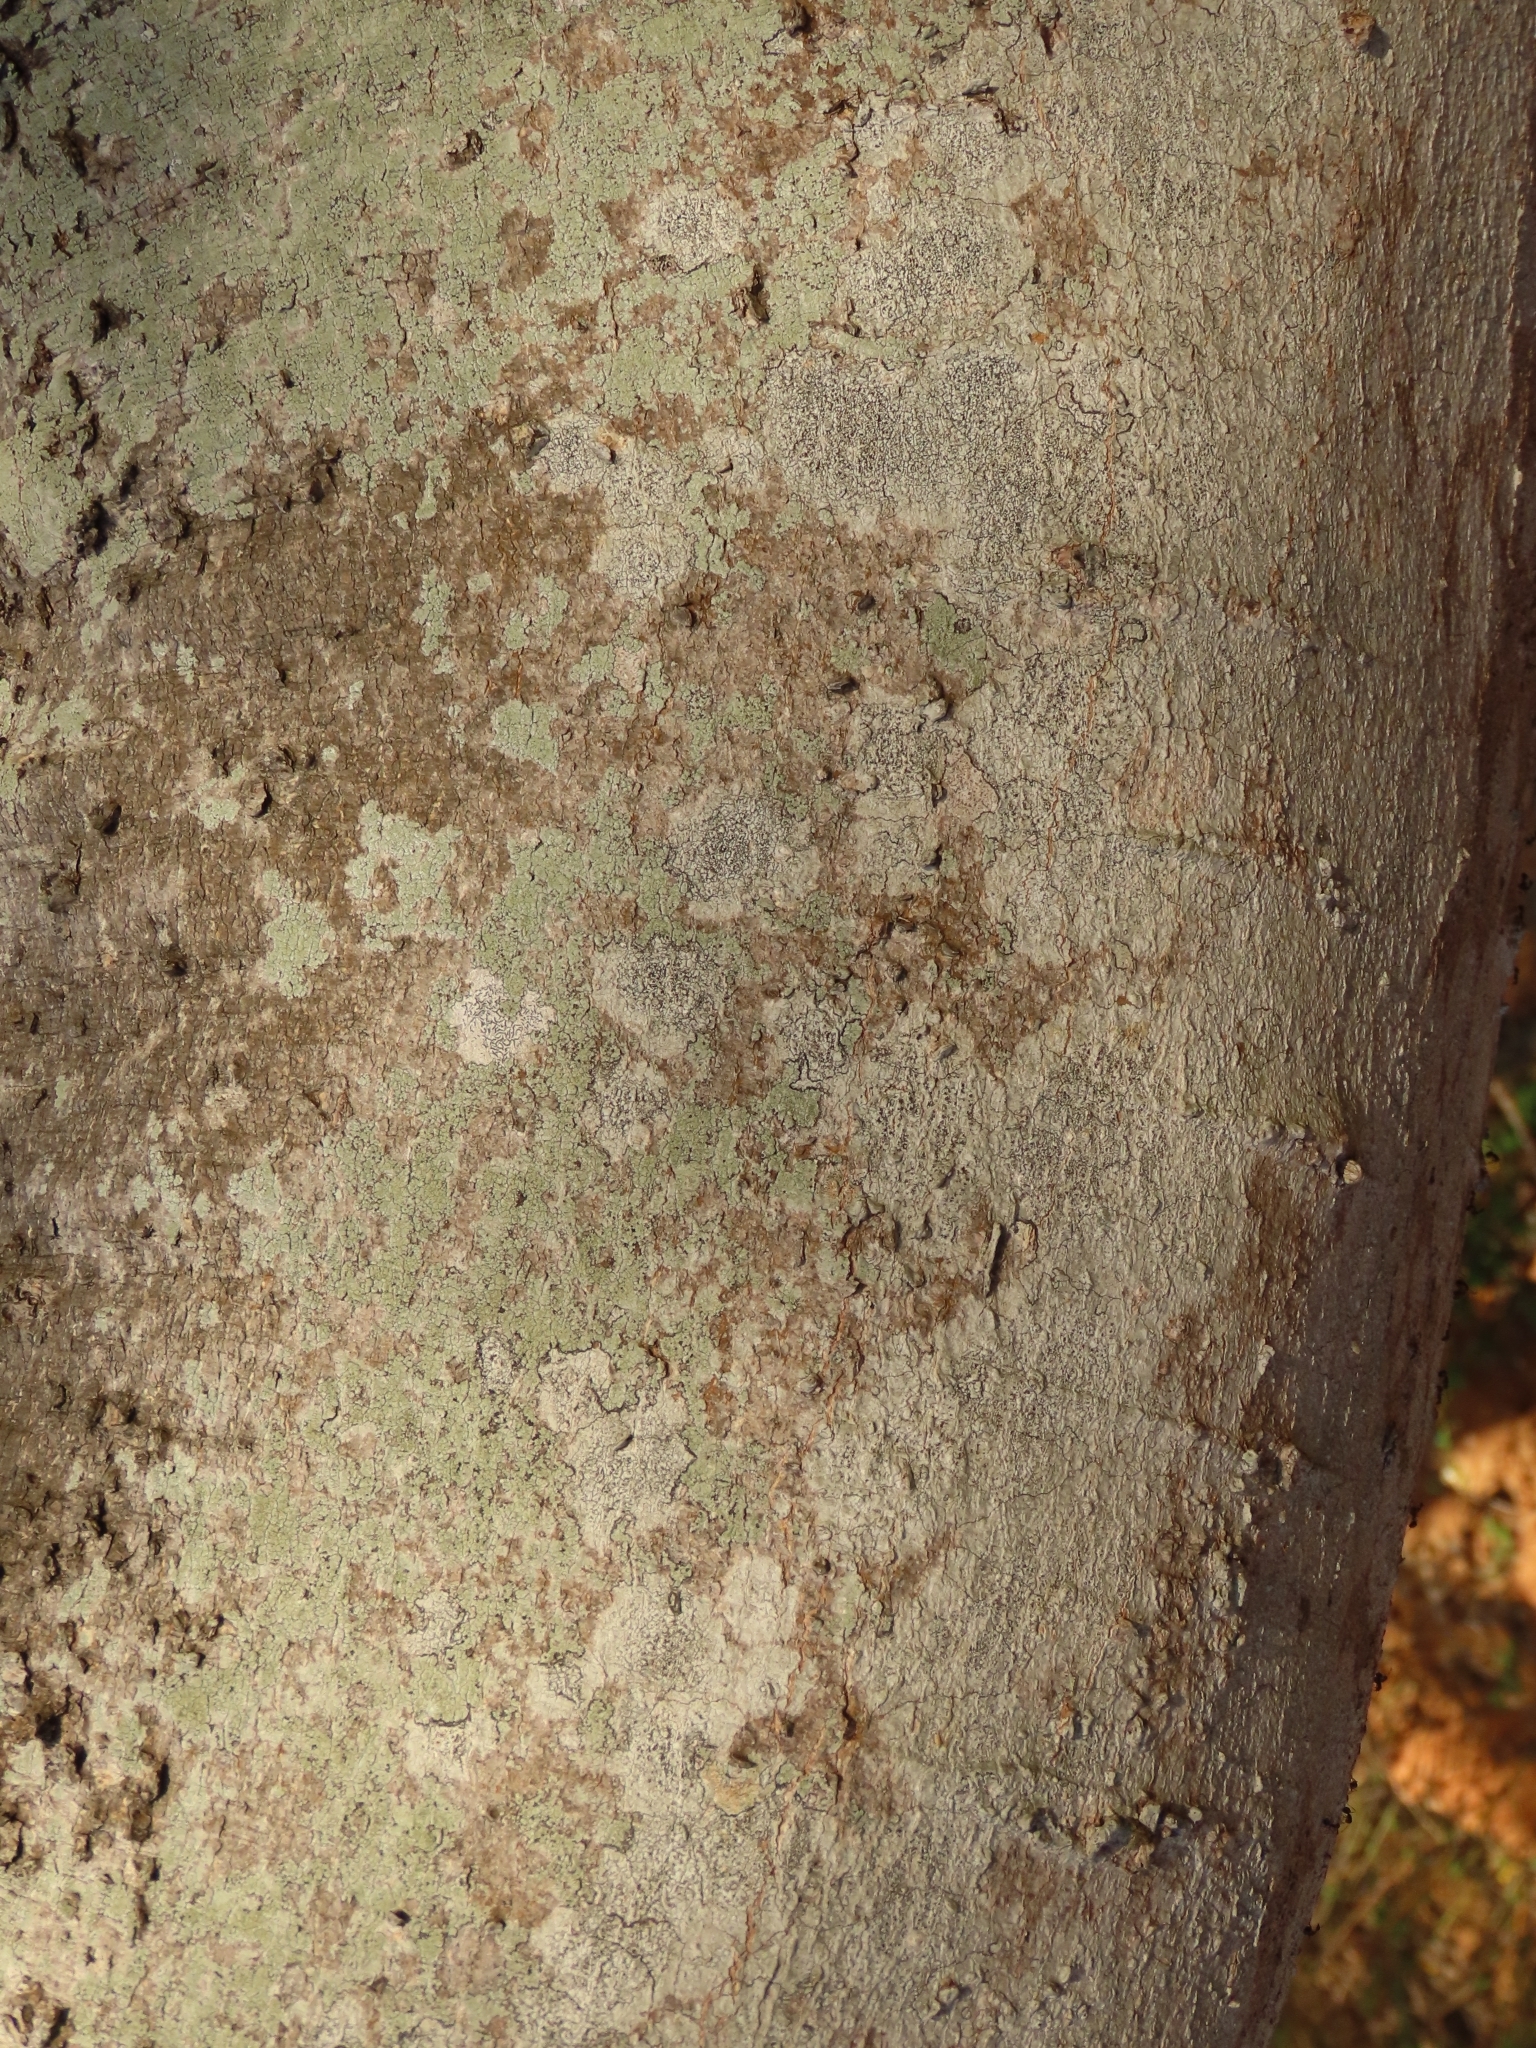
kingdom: Plantae
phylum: Tracheophyta
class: Magnoliopsida
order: Rosales
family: Cannabaceae
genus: Celtis
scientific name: Celtis sinensis
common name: Chinese hackberry
